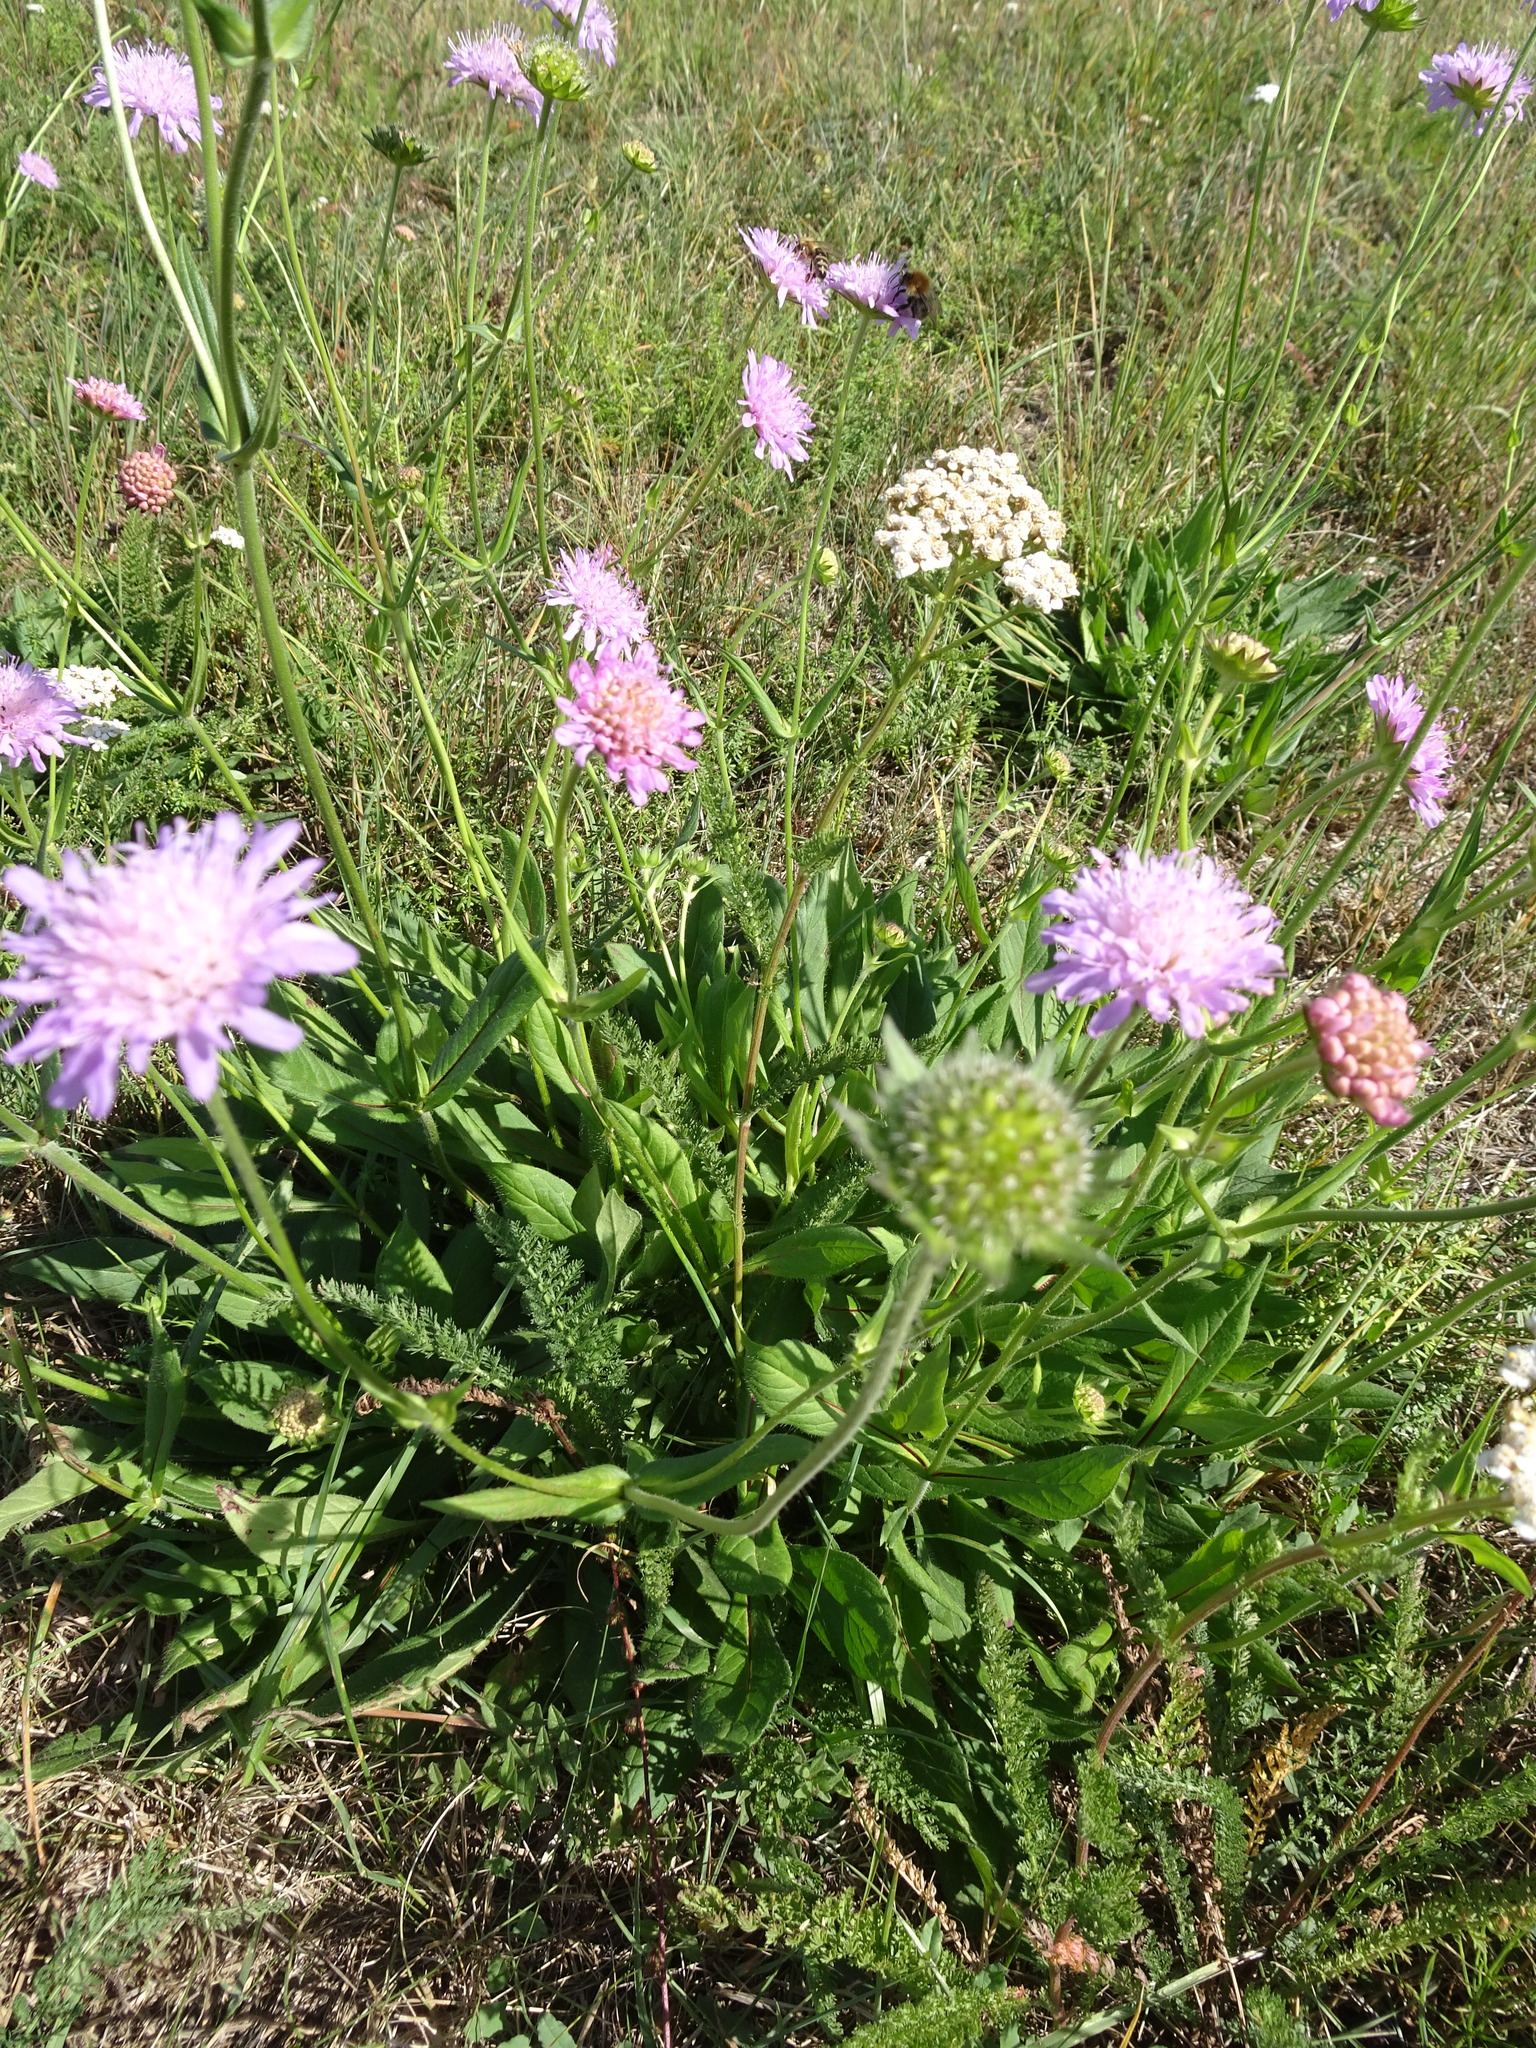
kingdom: Plantae
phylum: Tracheophyta
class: Magnoliopsida
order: Dipsacales
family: Caprifoliaceae
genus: Knautia
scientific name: Knautia arvensis
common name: Field scabiosa
